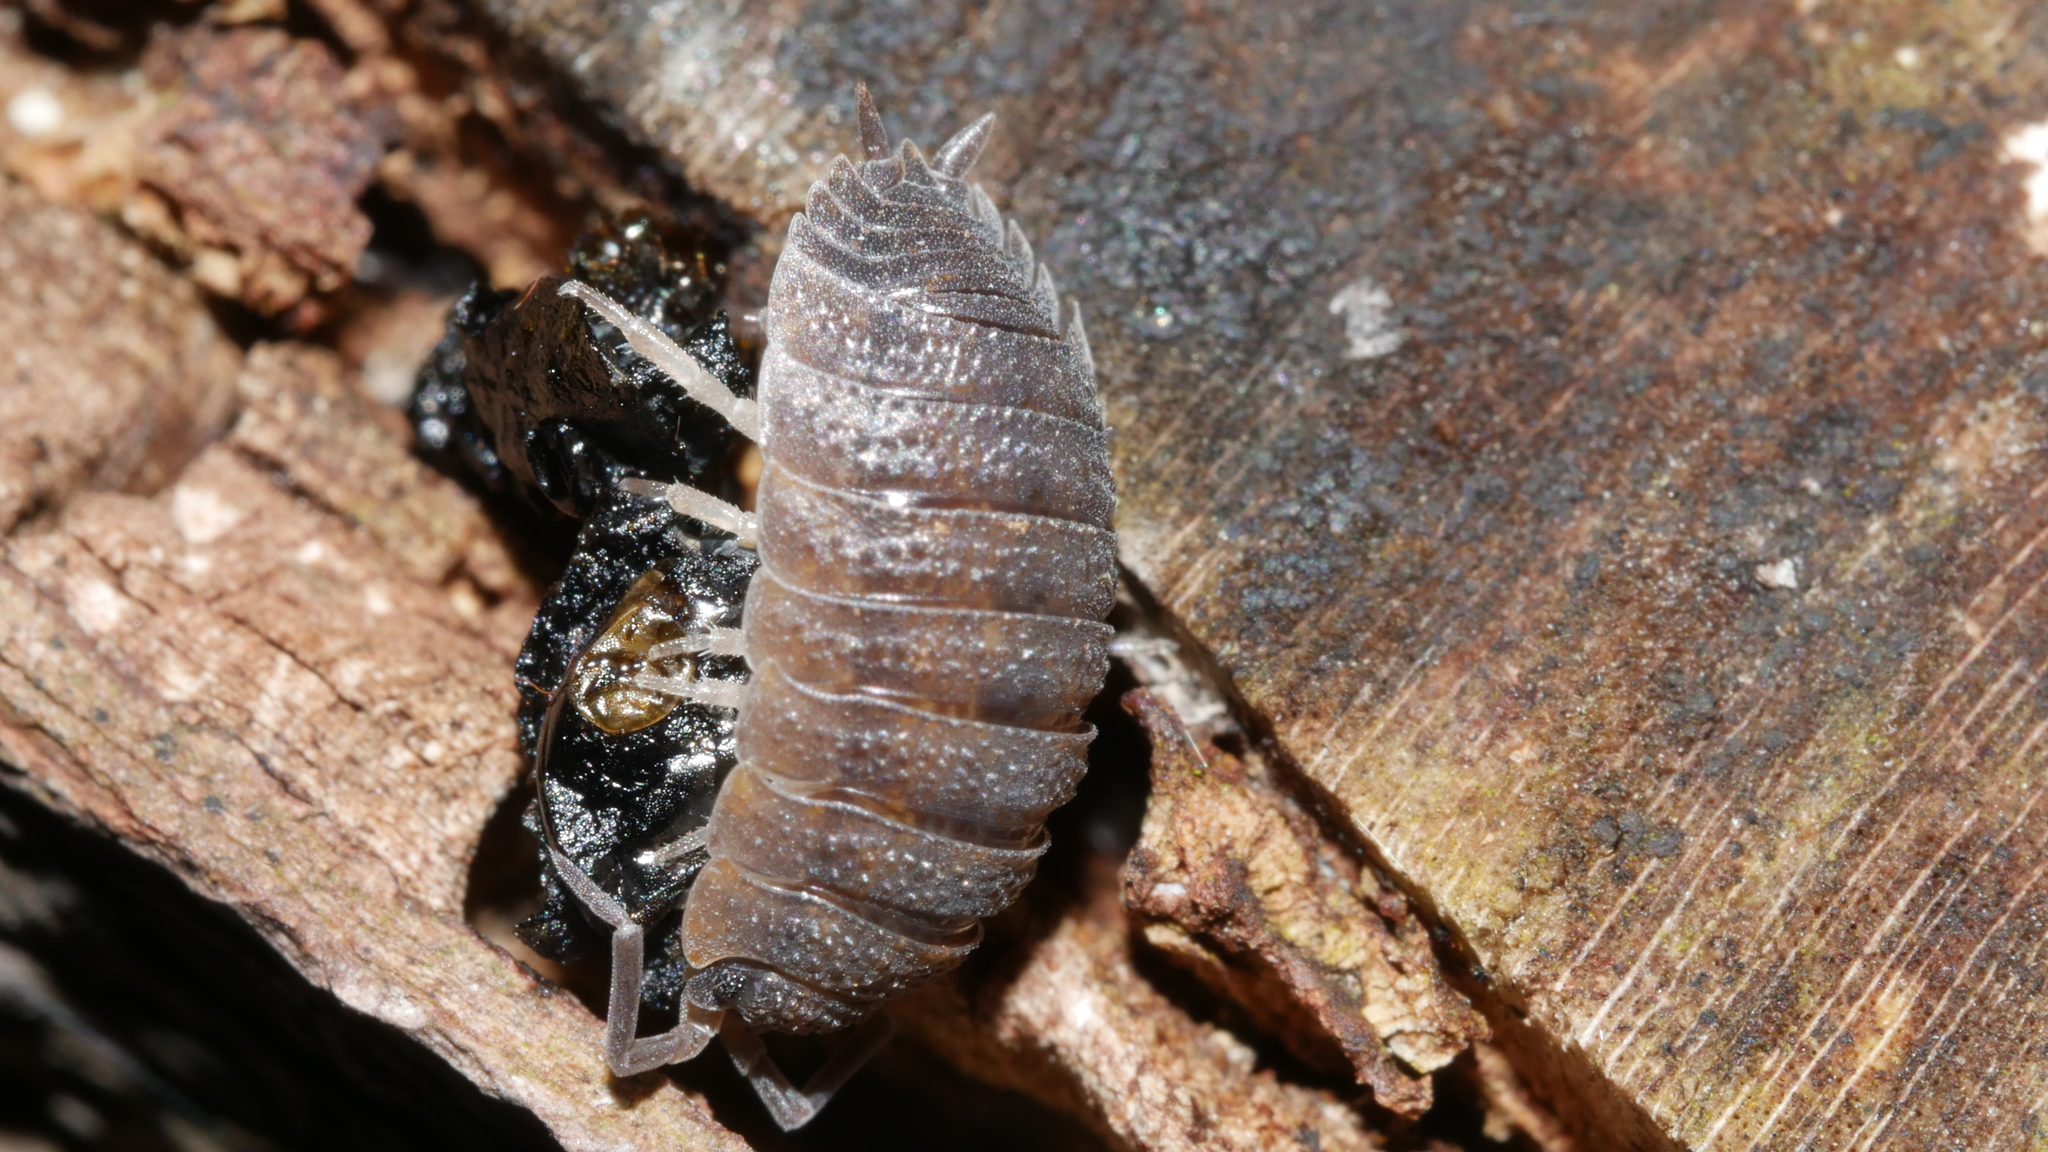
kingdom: Animalia
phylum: Arthropoda
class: Malacostraca
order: Isopoda
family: Porcellionidae
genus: Porcellio
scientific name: Porcellio scaber
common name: Common rough woodlouse
